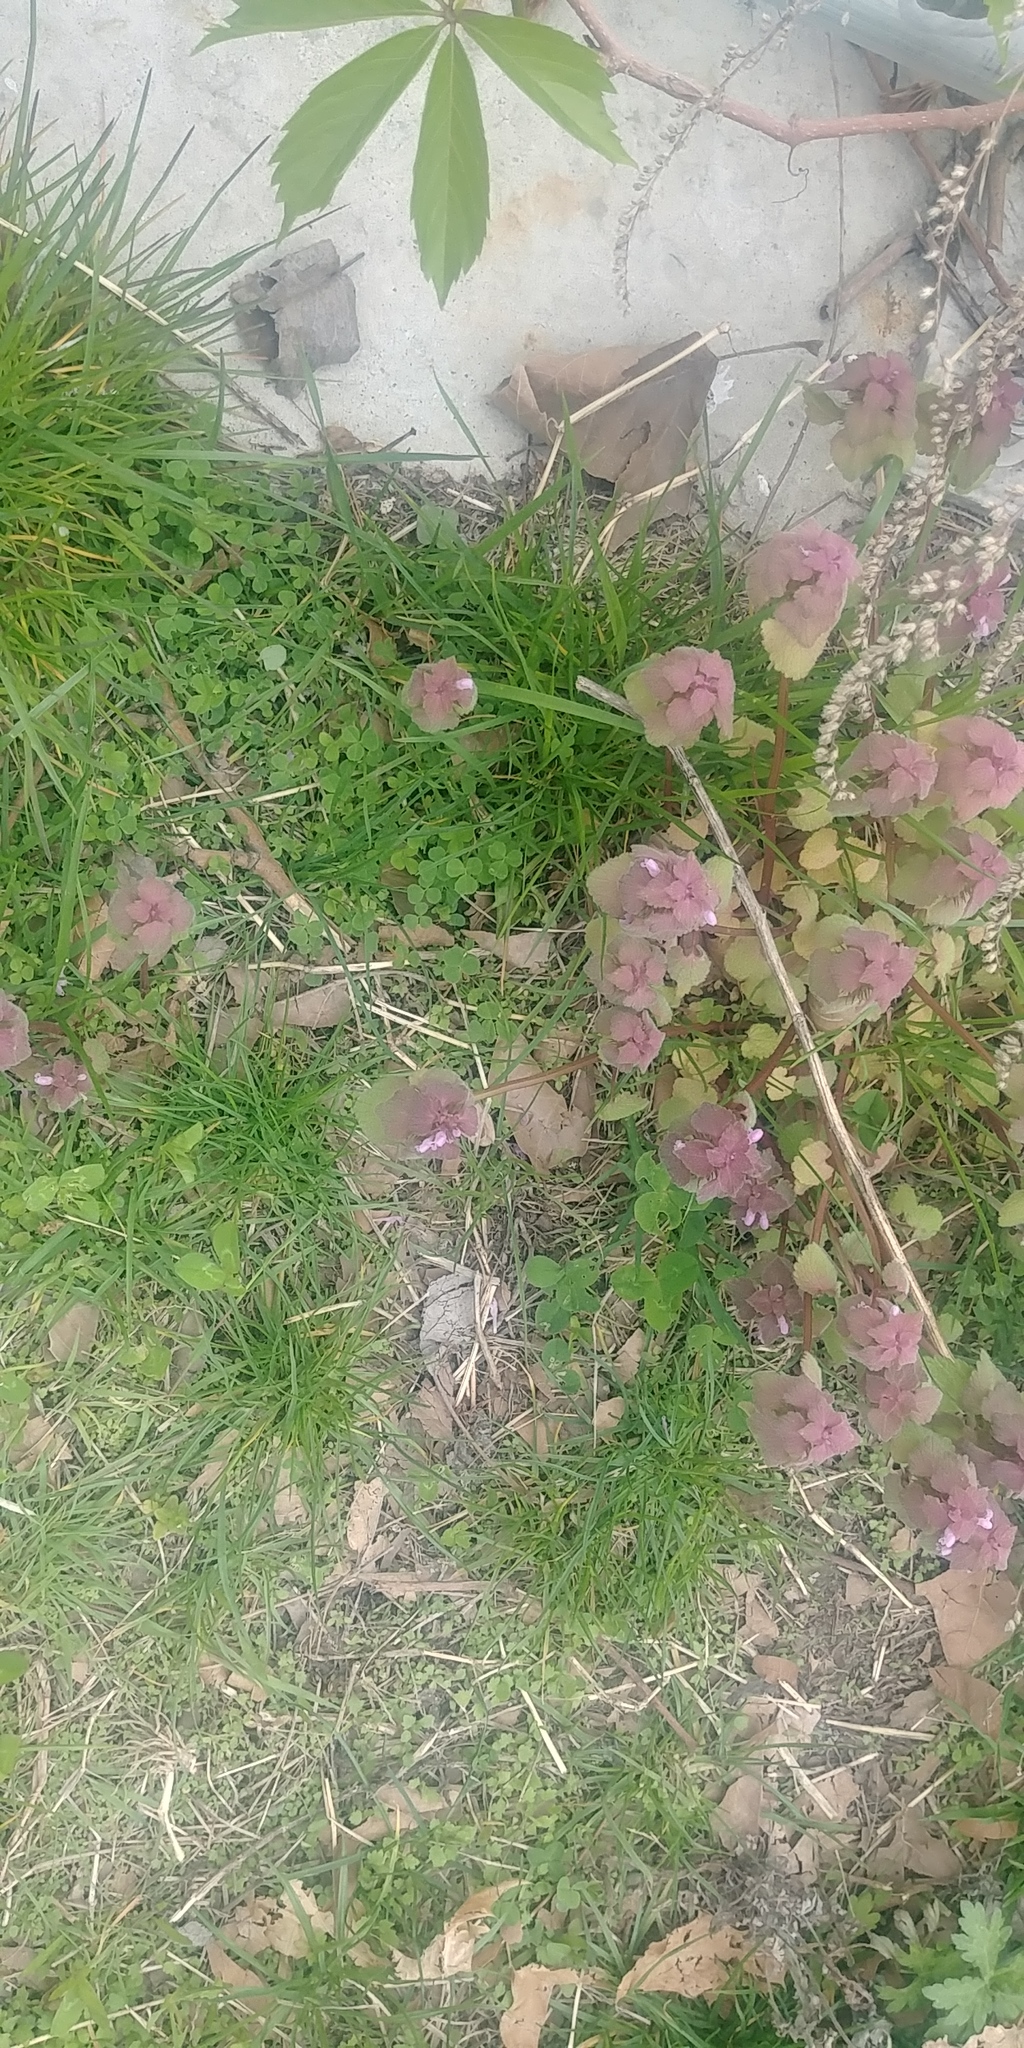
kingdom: Plantae
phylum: Tracheophyta
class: Magnoliopsida
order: Lamiales
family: Lamiaceae
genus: Lamium
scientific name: Lamium purpureum
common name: Red dead-nettle
